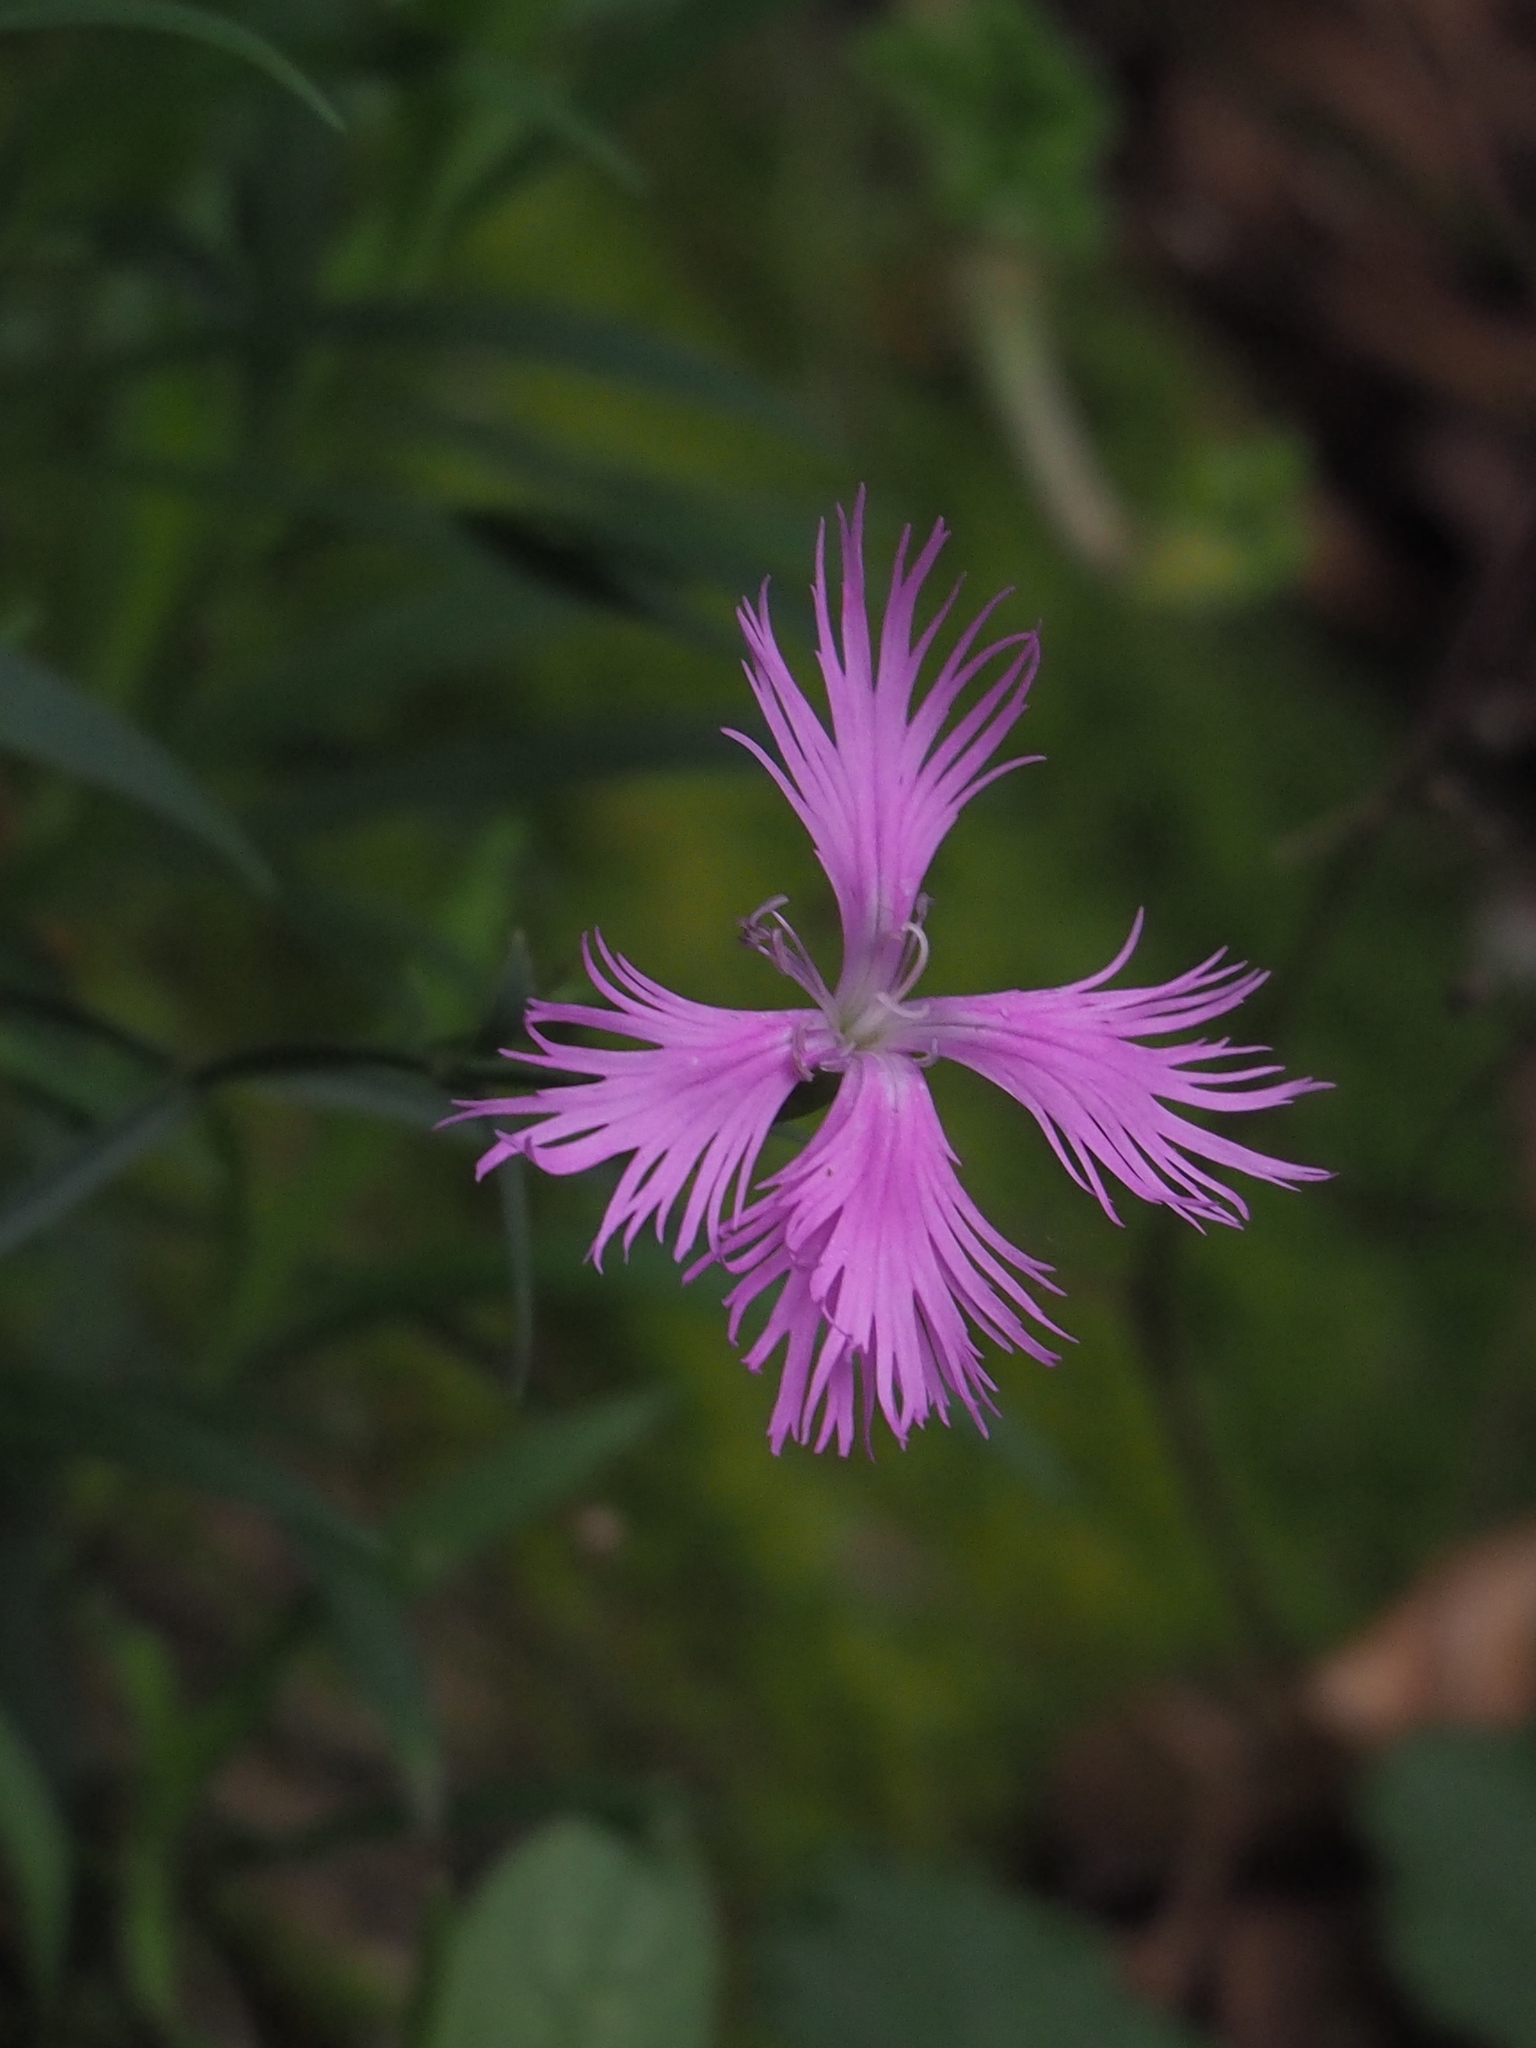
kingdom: Plantae
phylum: Tracheophyta
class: Magnoliopsida
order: Caryophyllales
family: Caryophyllaceae
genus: Dianthus
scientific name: Dianthus longicalyx
